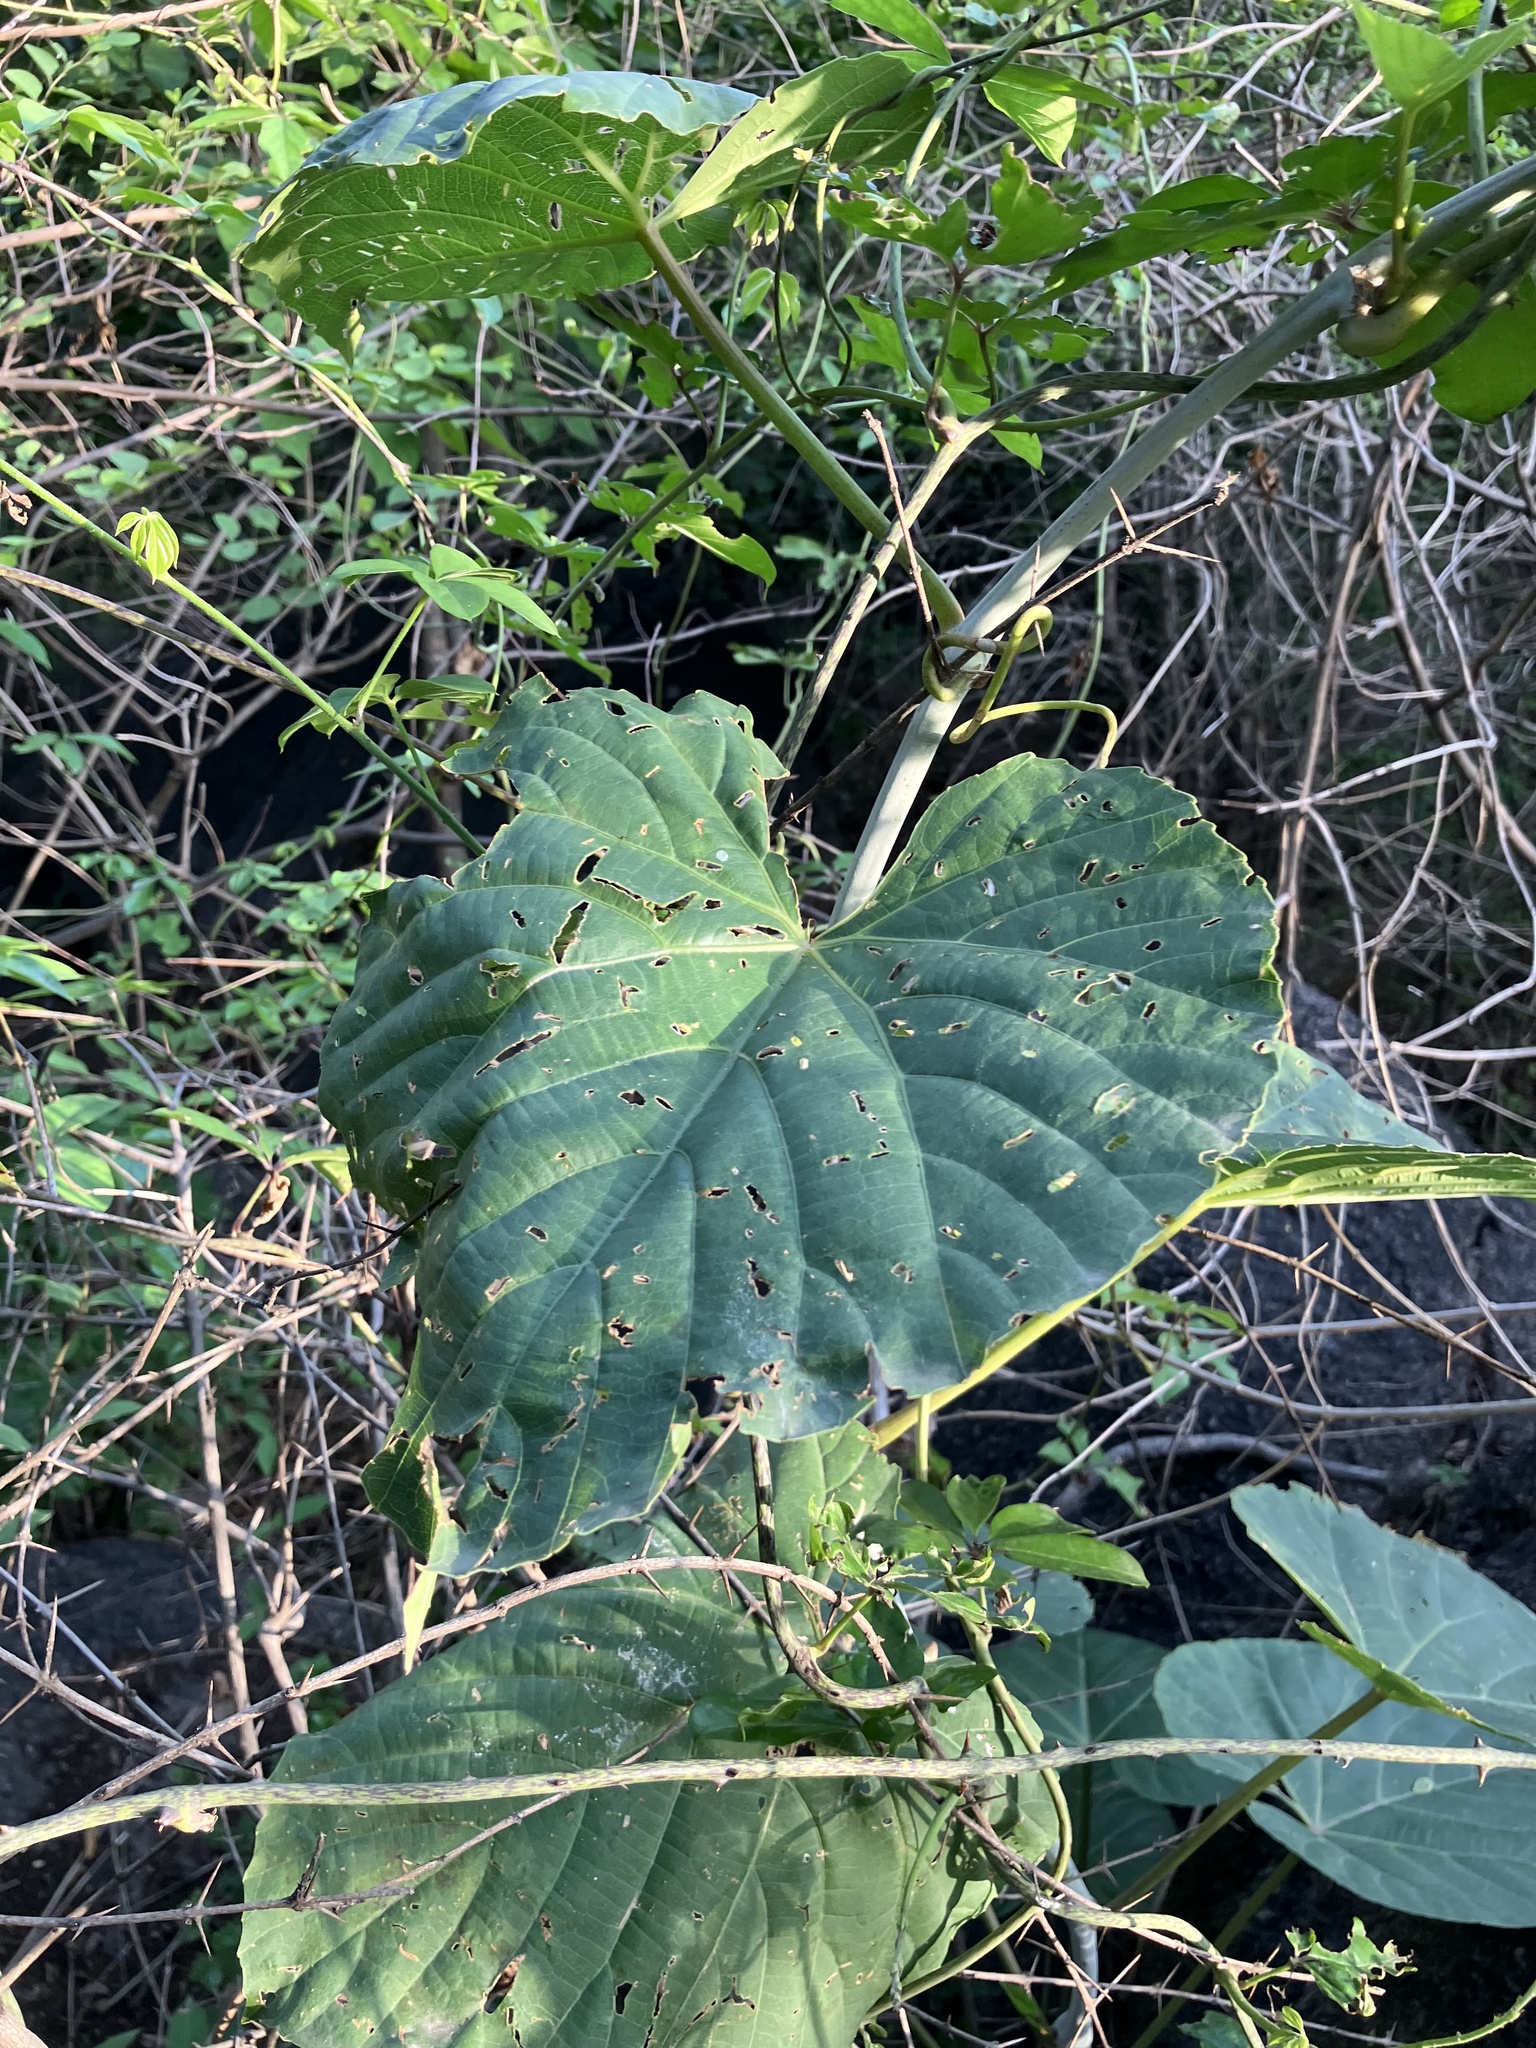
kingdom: Plantae
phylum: Tracheophyta
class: Magnoliopsida
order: Vitales
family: Vitaceae
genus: Cissus
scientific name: Cissus arnottiana
